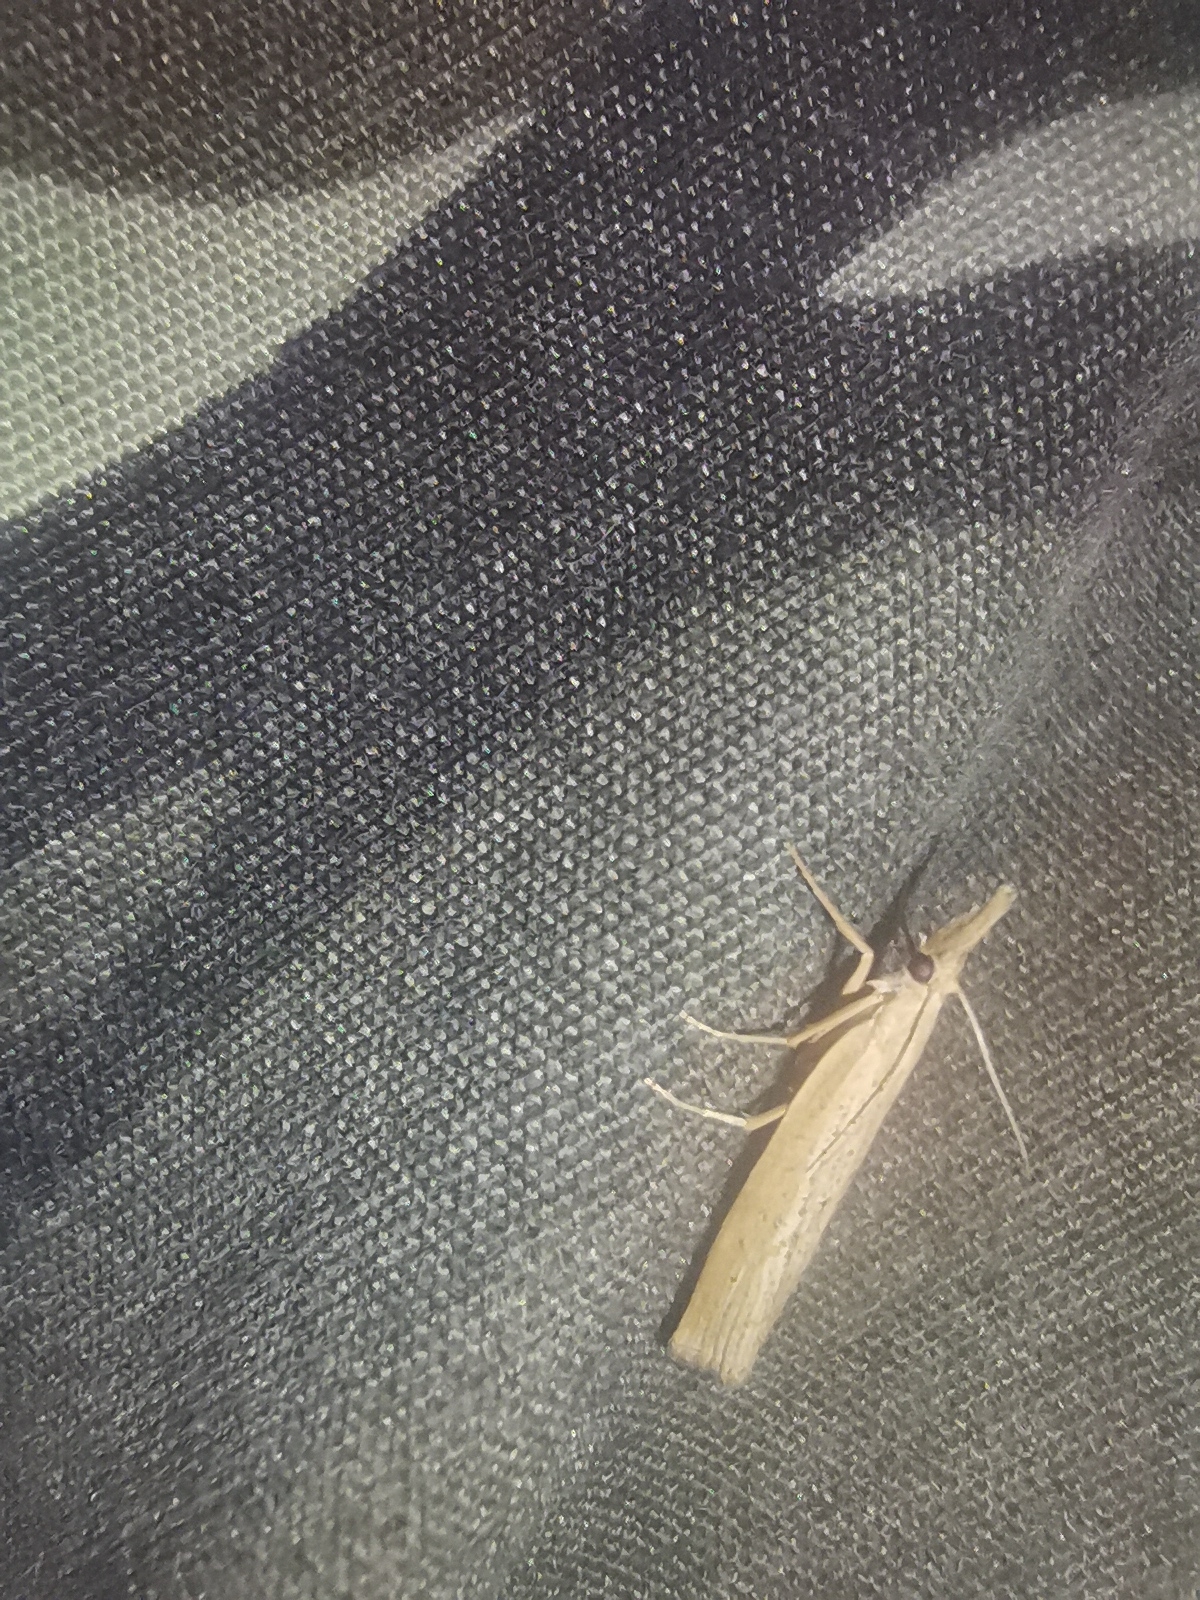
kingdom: Animalia
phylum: Arthropoda
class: Insecta
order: Lepidoptera
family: Crambidae
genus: Pediasia
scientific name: Pediasia contaminella
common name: Waste grass-veneer
